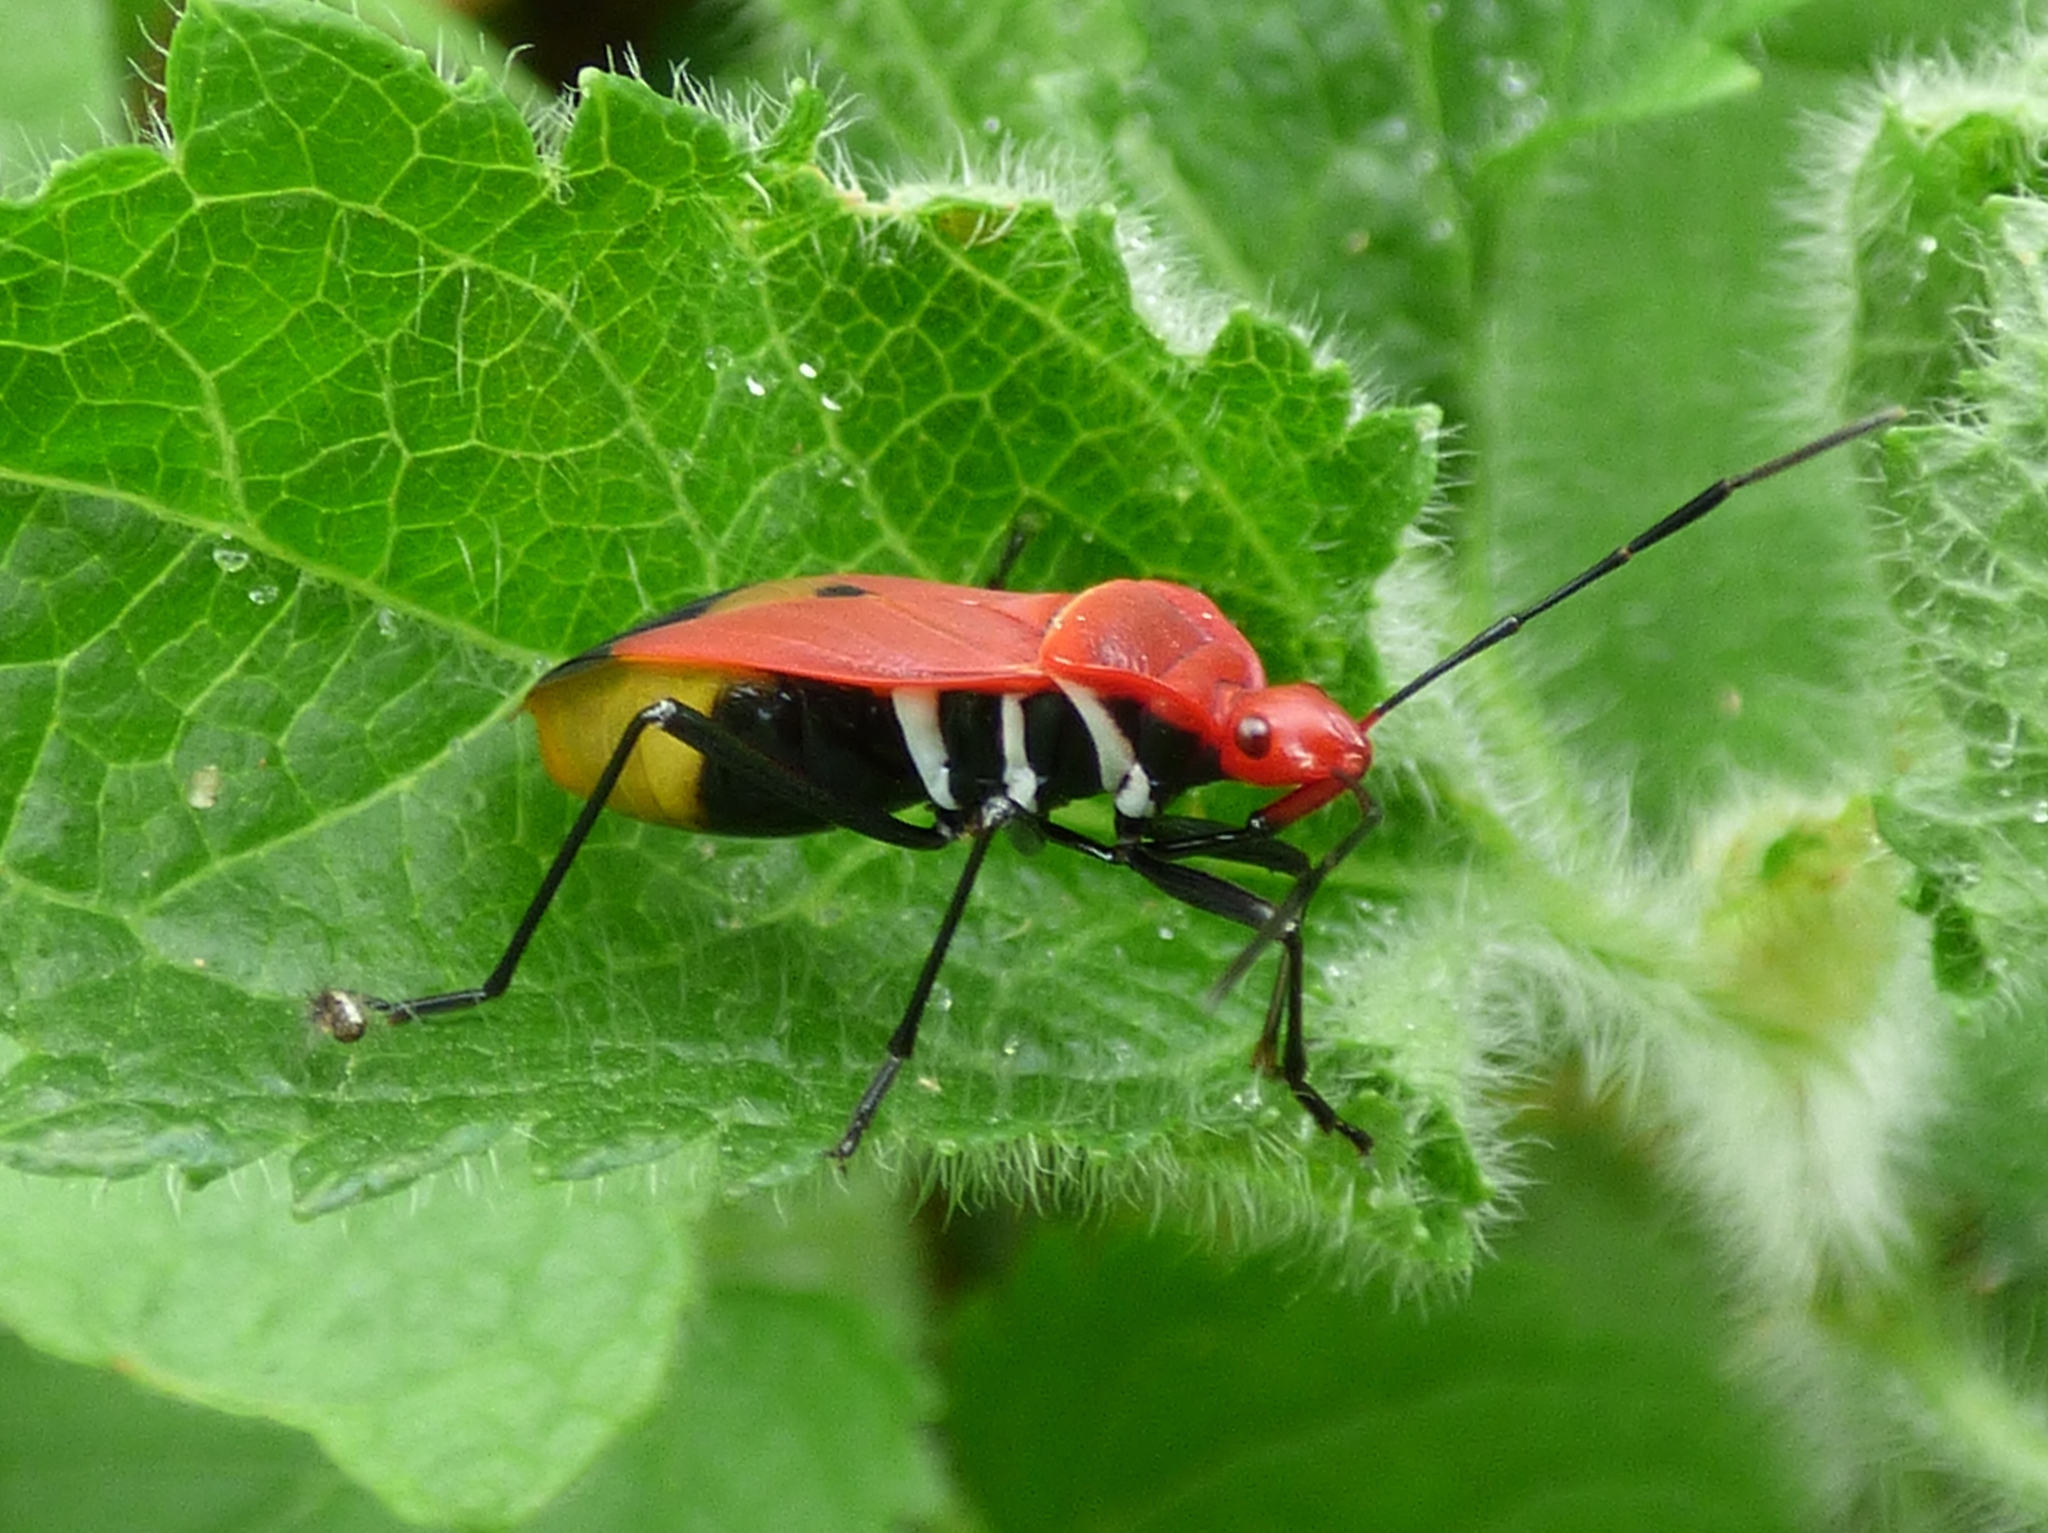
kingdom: Animalia
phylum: Arthropoda
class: Insecta
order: Hemiptera
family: Pyrrhocoridae
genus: Dindymus
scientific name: Dindymus rubiginosus
